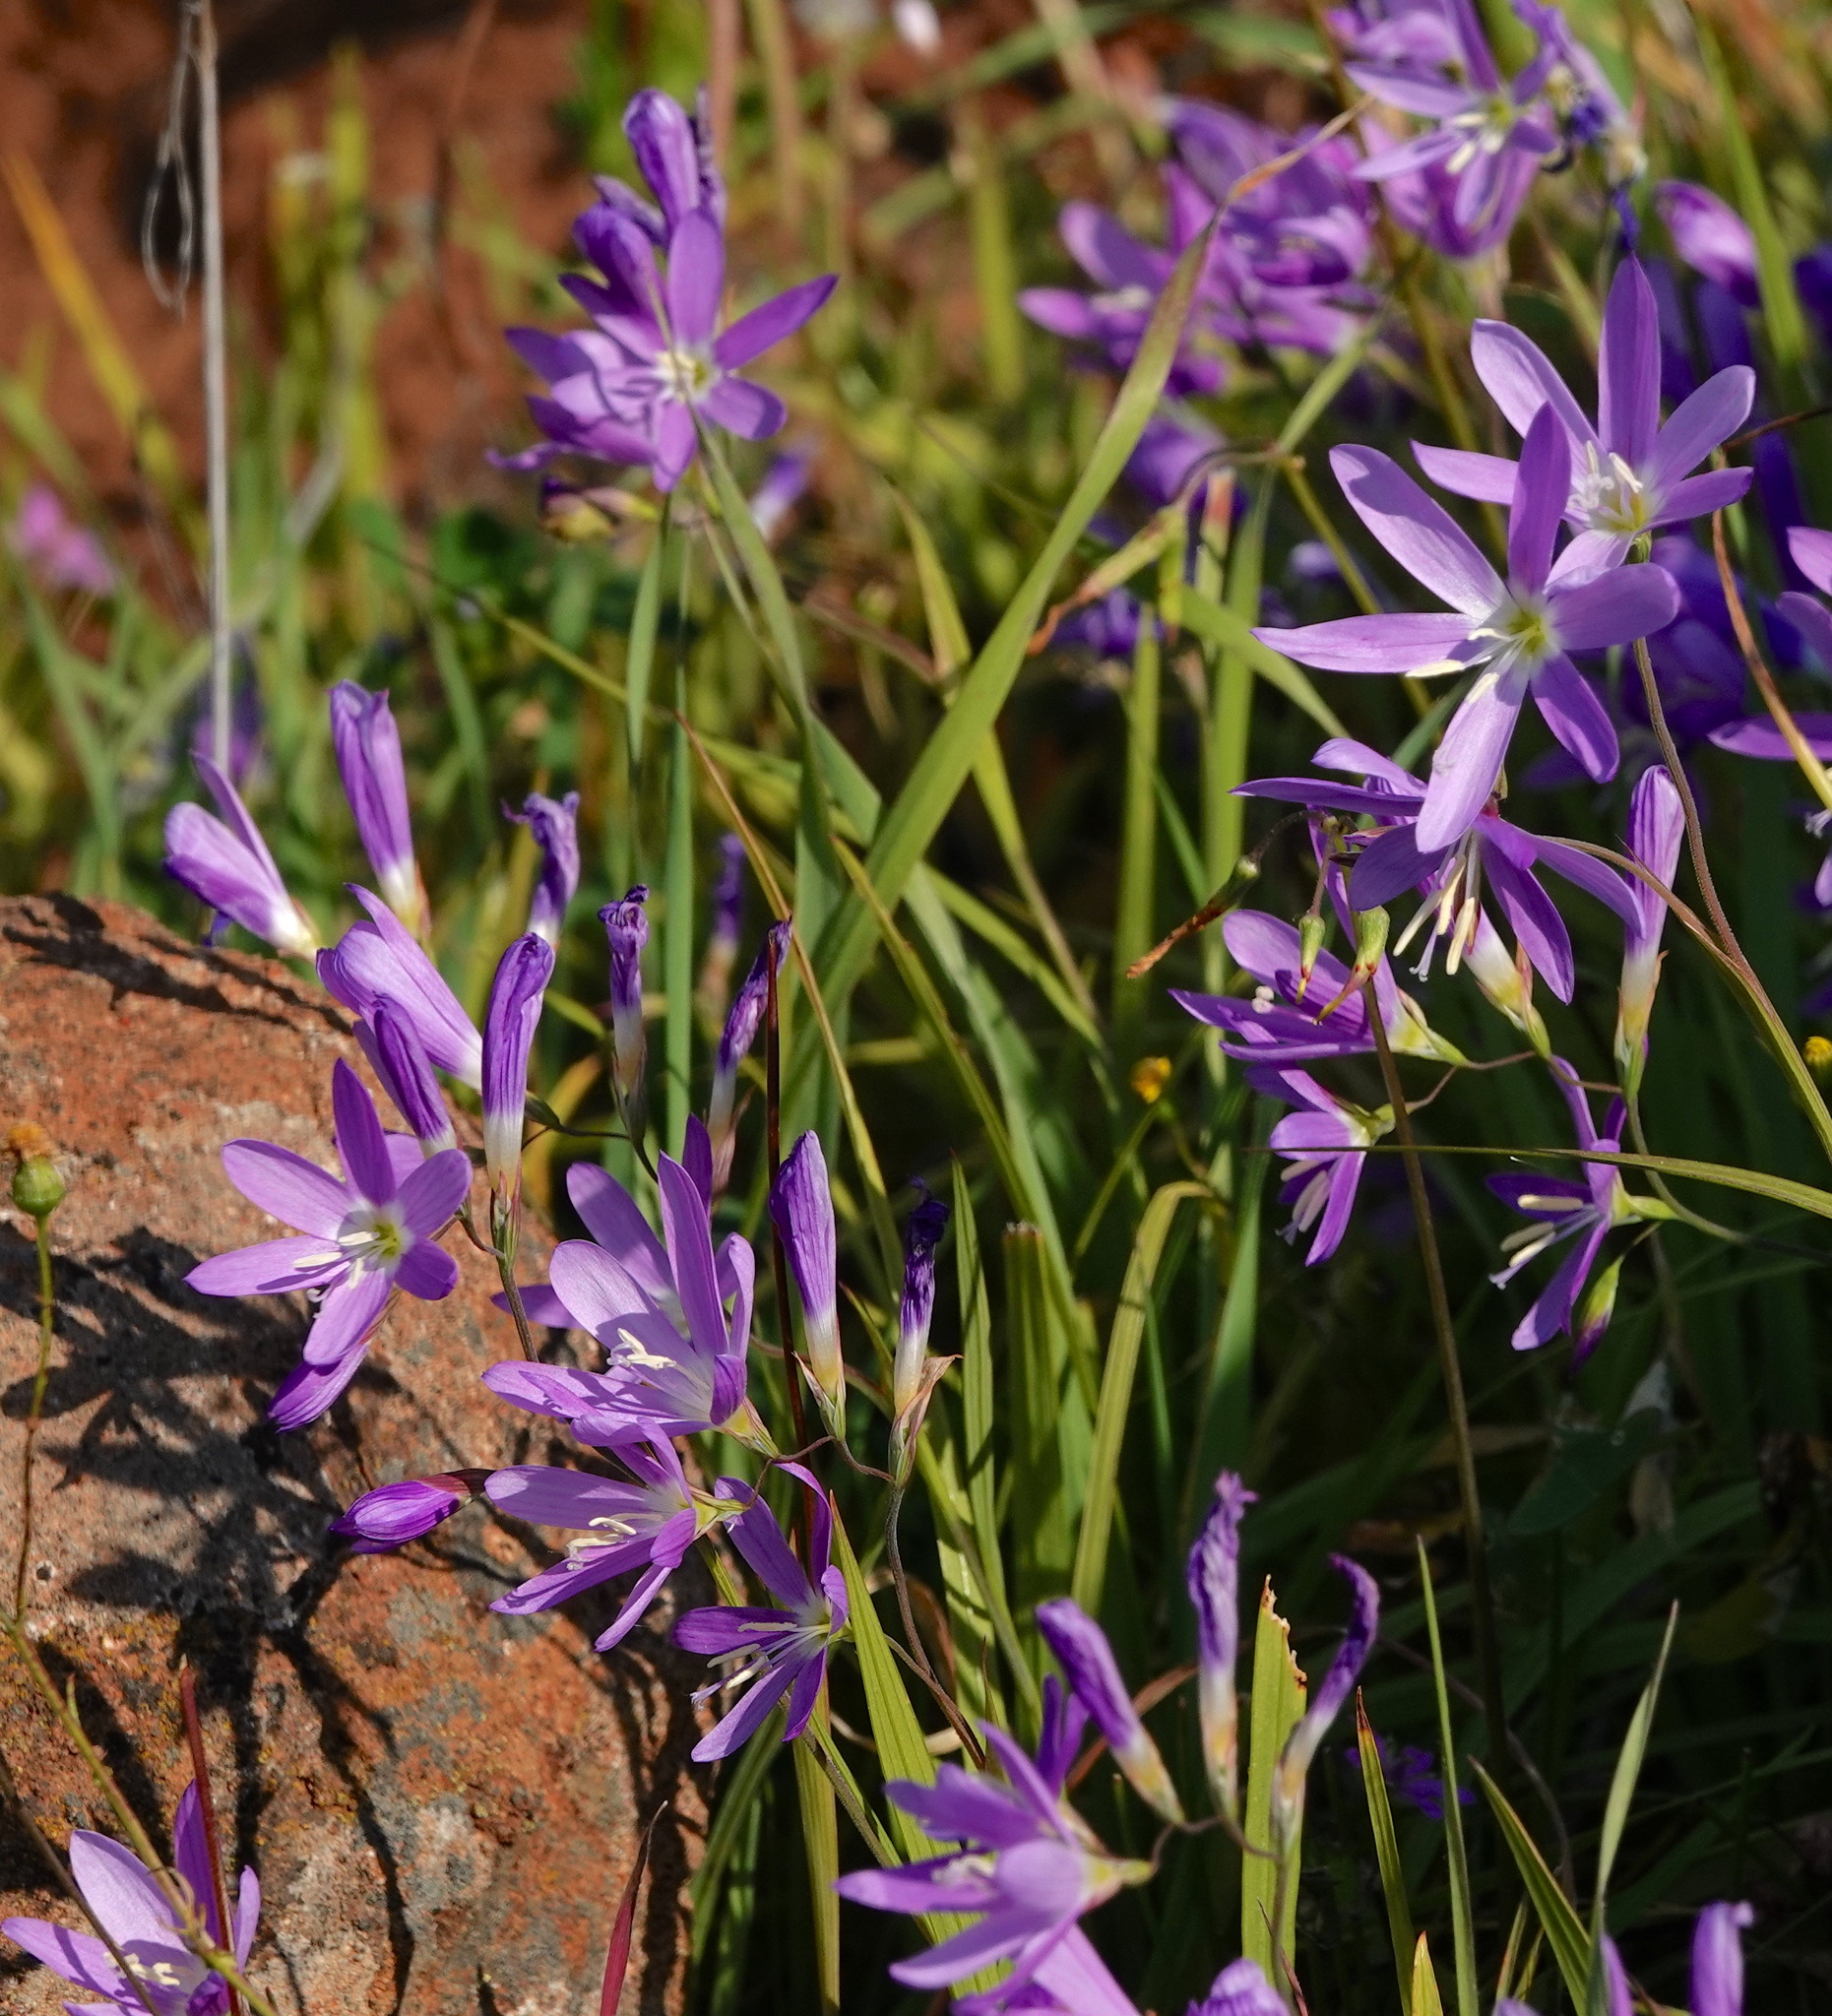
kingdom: Plantae
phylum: Tracheophyta
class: Liliopsida
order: Asparagales
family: Iridaceae
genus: Geissorhiza
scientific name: Geissorhiza inaequalis
